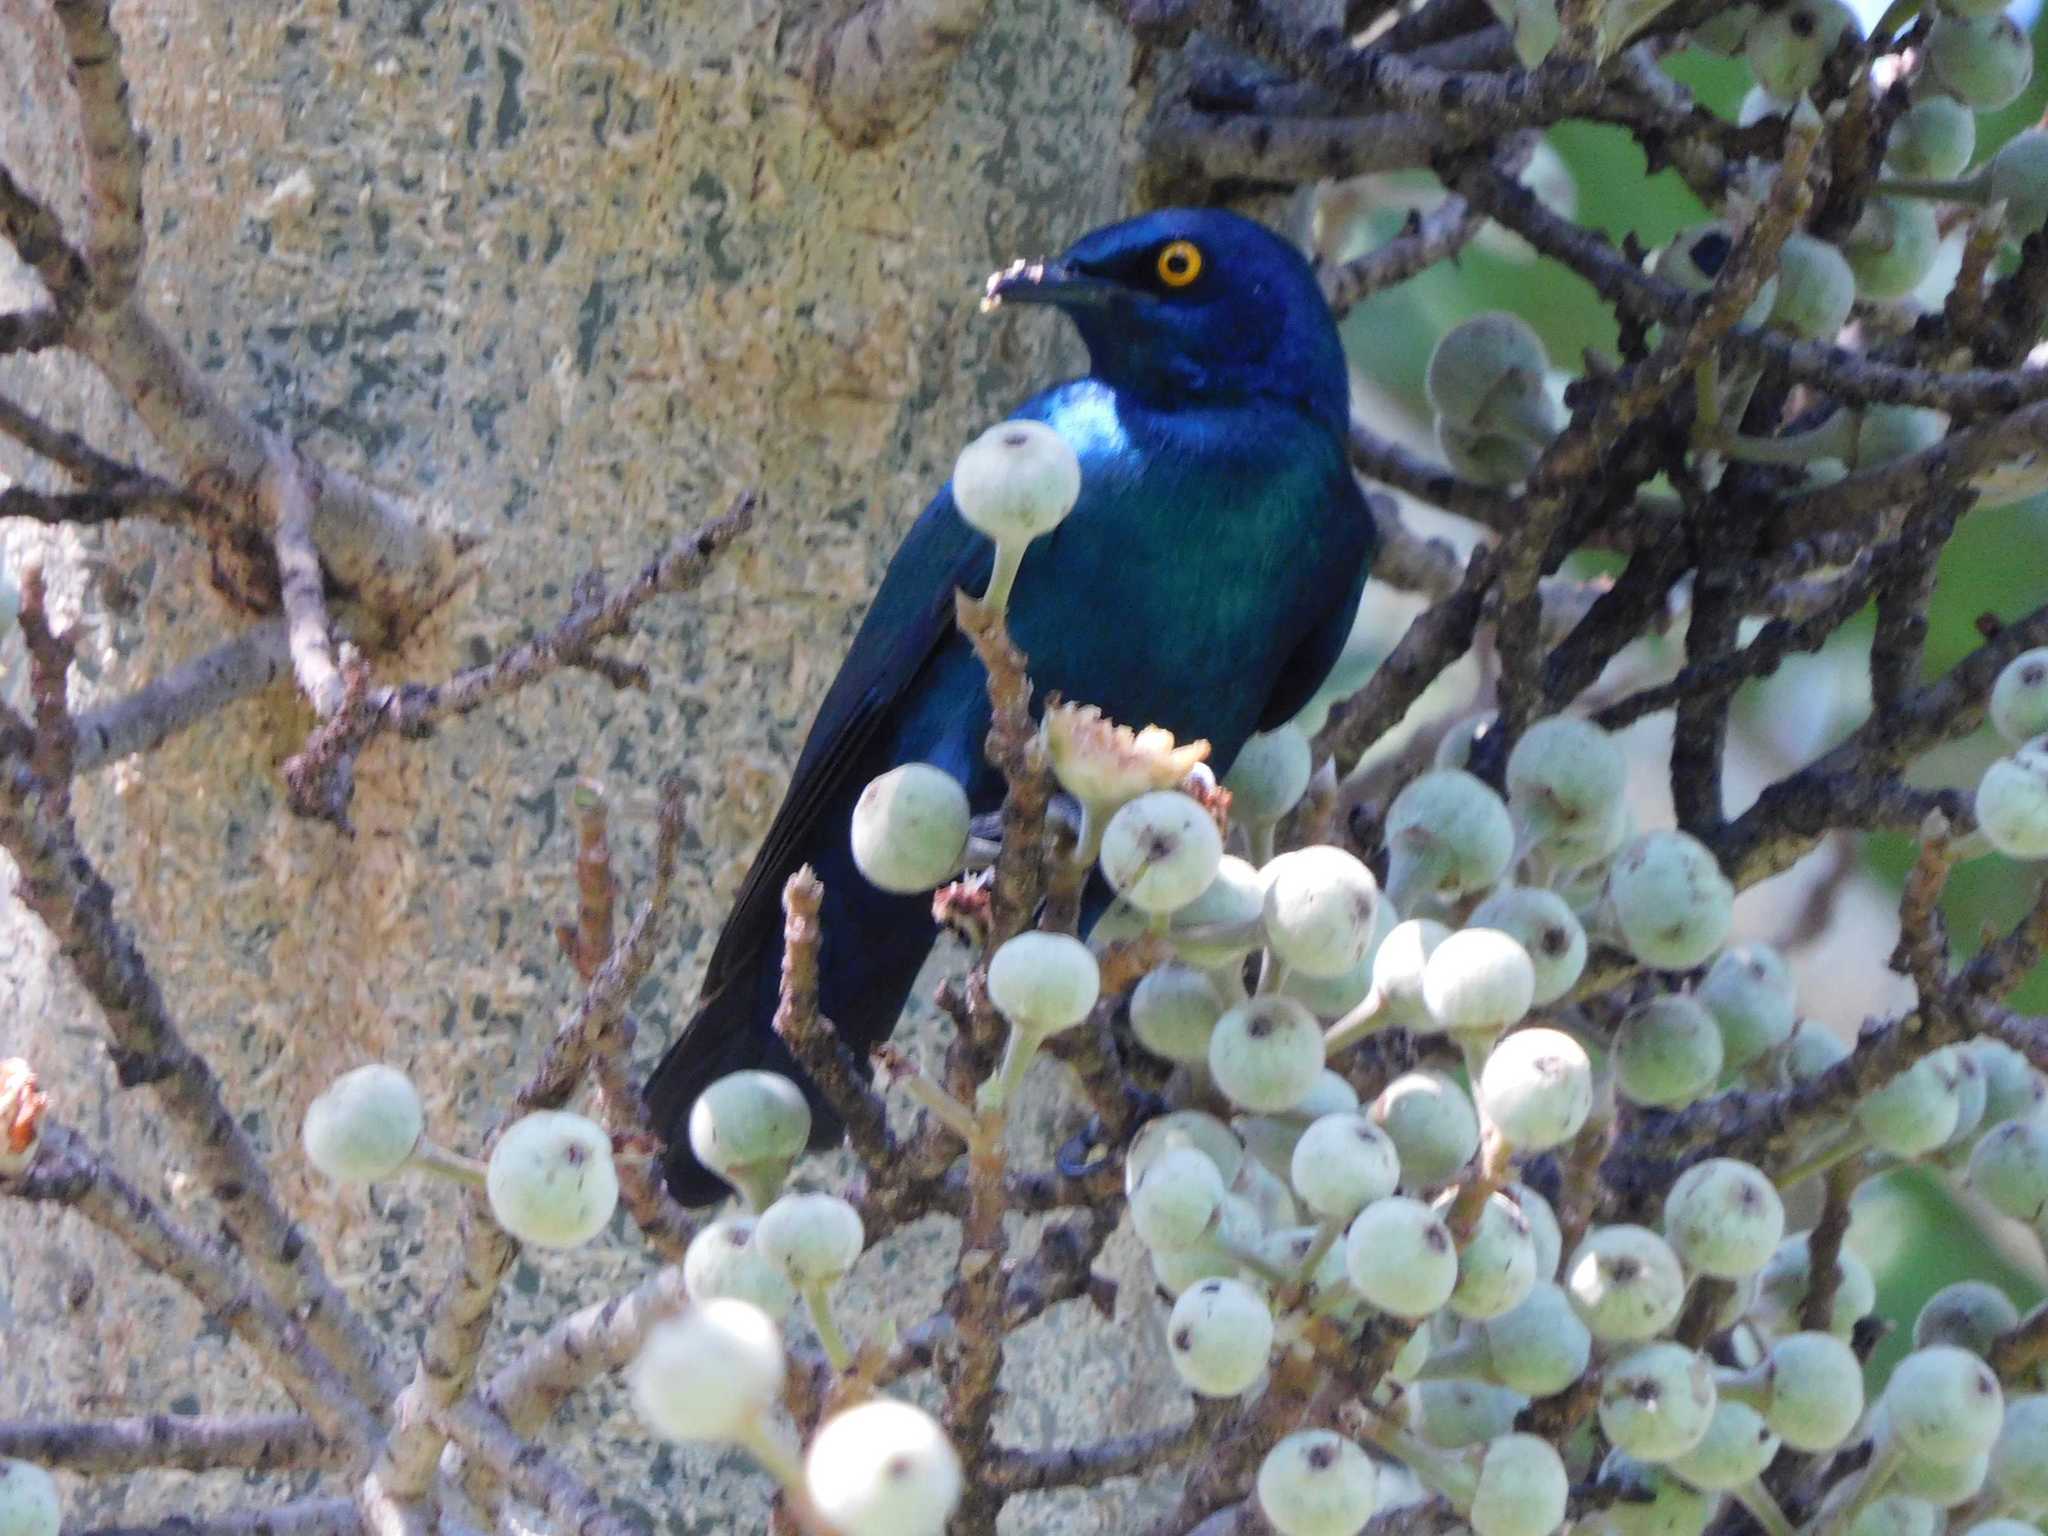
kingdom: Animalia
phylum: Chordata
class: Aves
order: Passeriformes
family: Sturnidae
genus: Lamprotornis
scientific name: Lamprotornis nitens
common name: Cape starling
